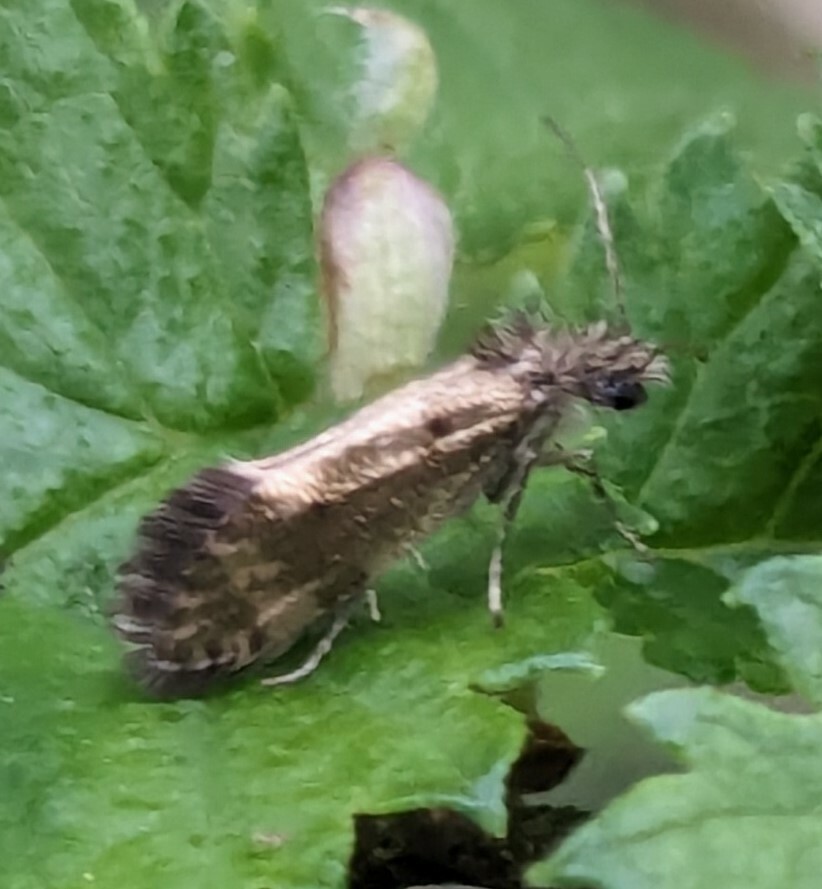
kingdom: Animalia
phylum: Arthropoda
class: Insecta
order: Lepidoptera
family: Eriocraniidae
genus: Dyseriocrania
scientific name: Dyseriocrania subpurpurella
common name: Common oak purple
